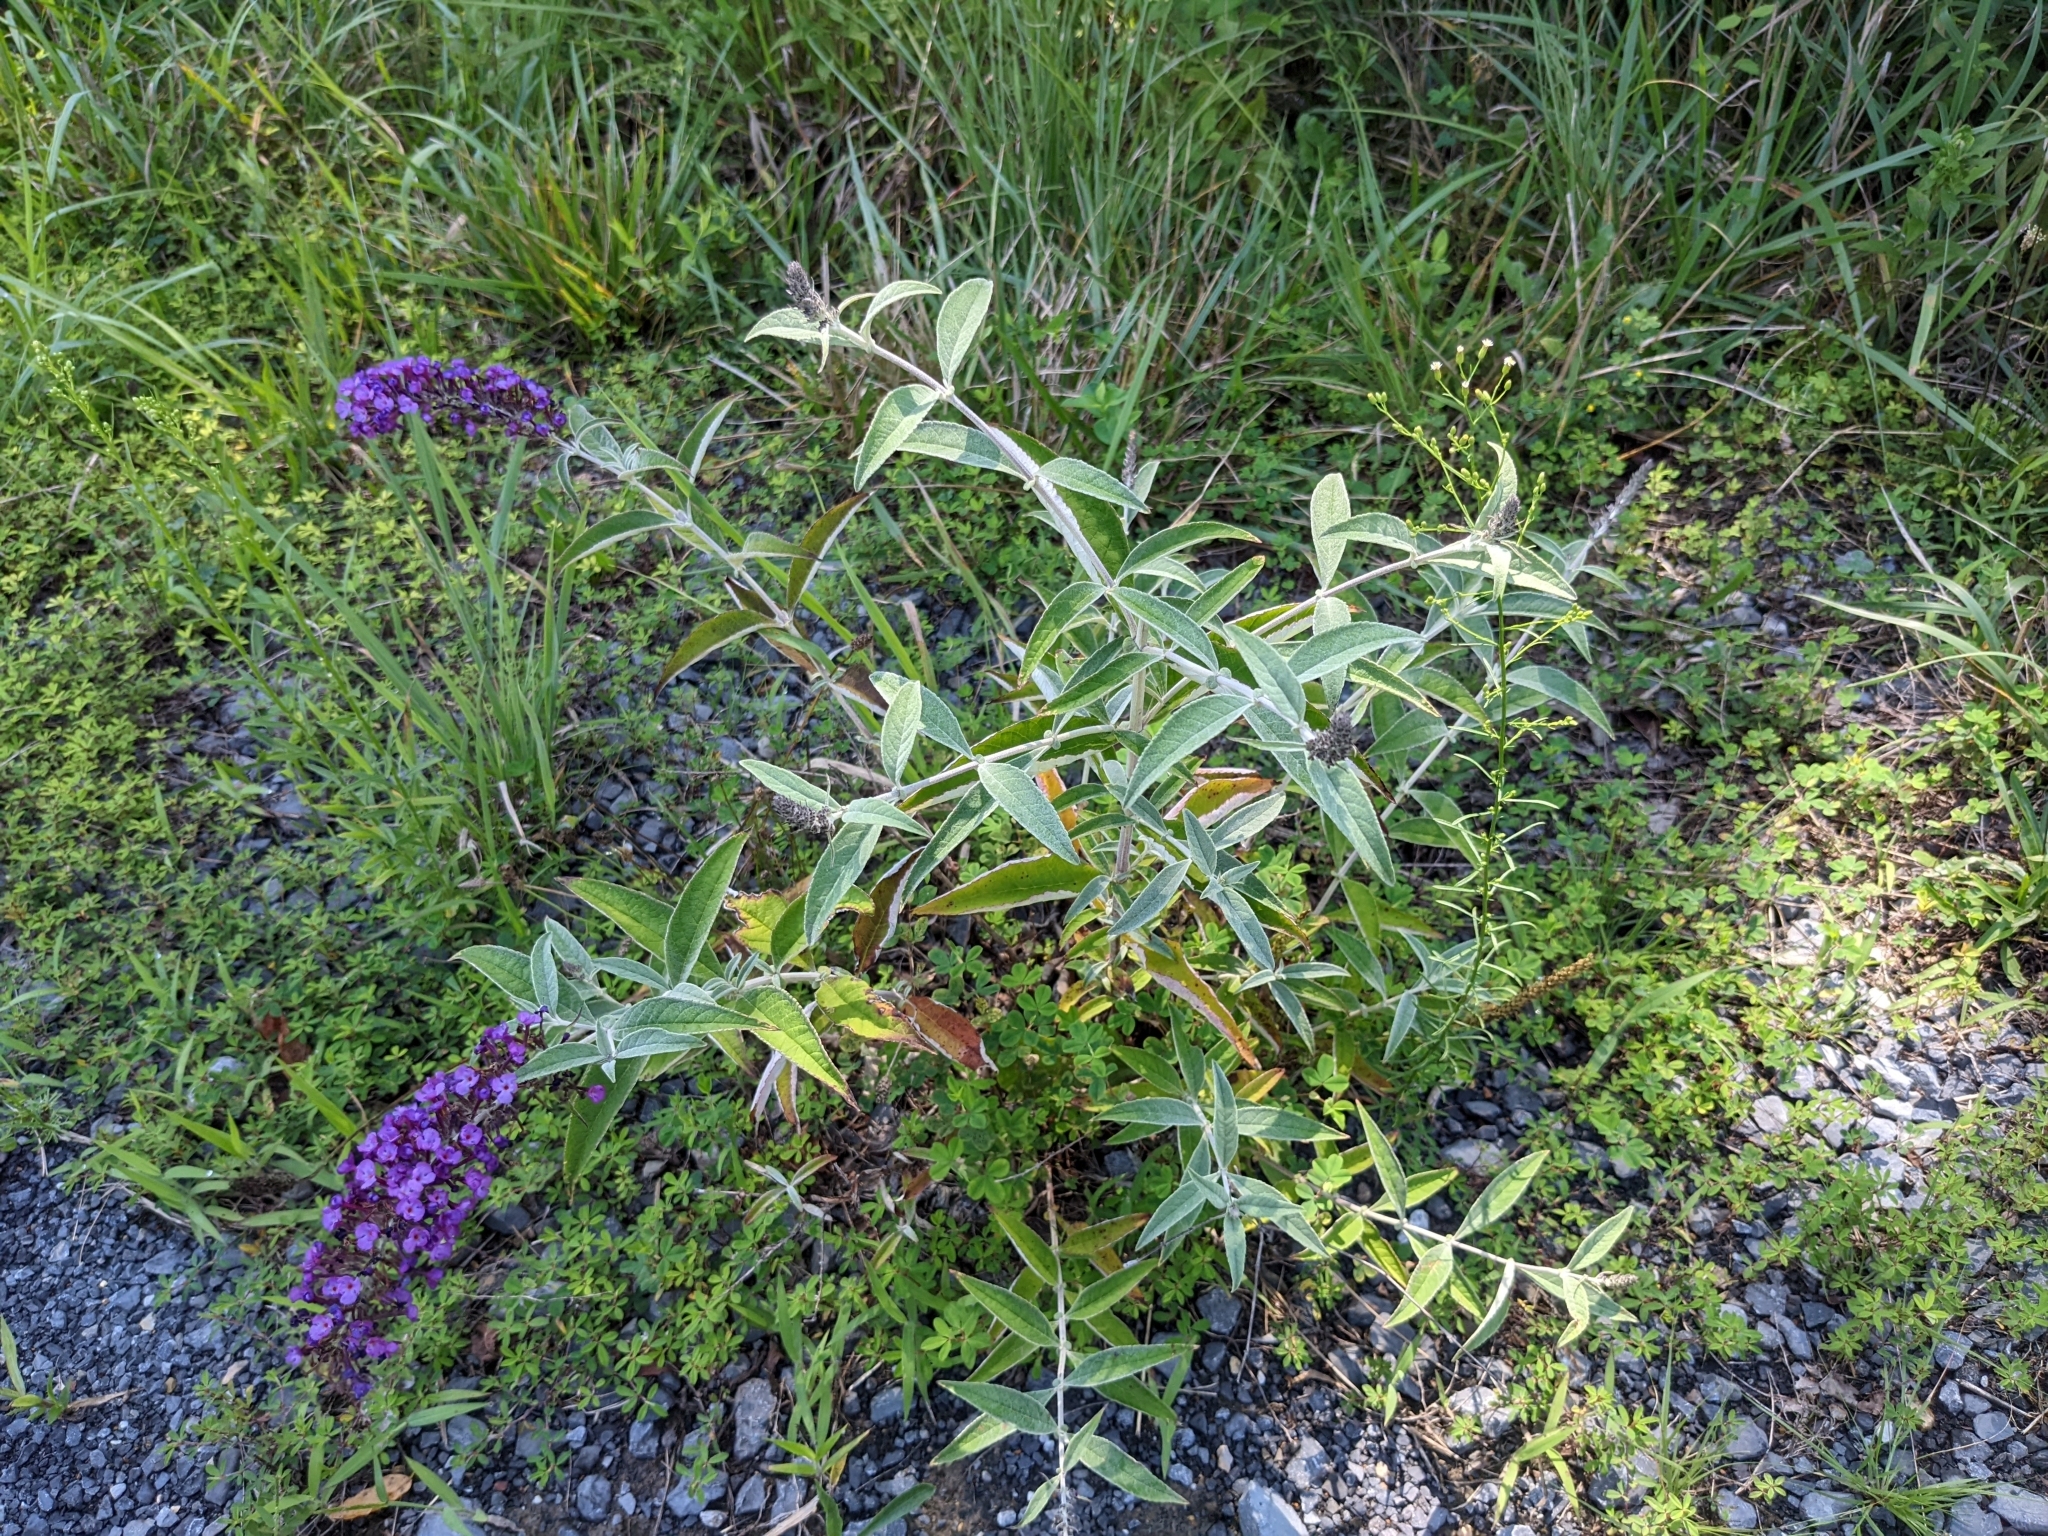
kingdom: Plantae
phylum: Tracheophyta
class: Magnoliopsida
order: Lamiales
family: Scrophulariaceae
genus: Buddleja
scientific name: Buddleja davidii
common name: Butterfly-bush
